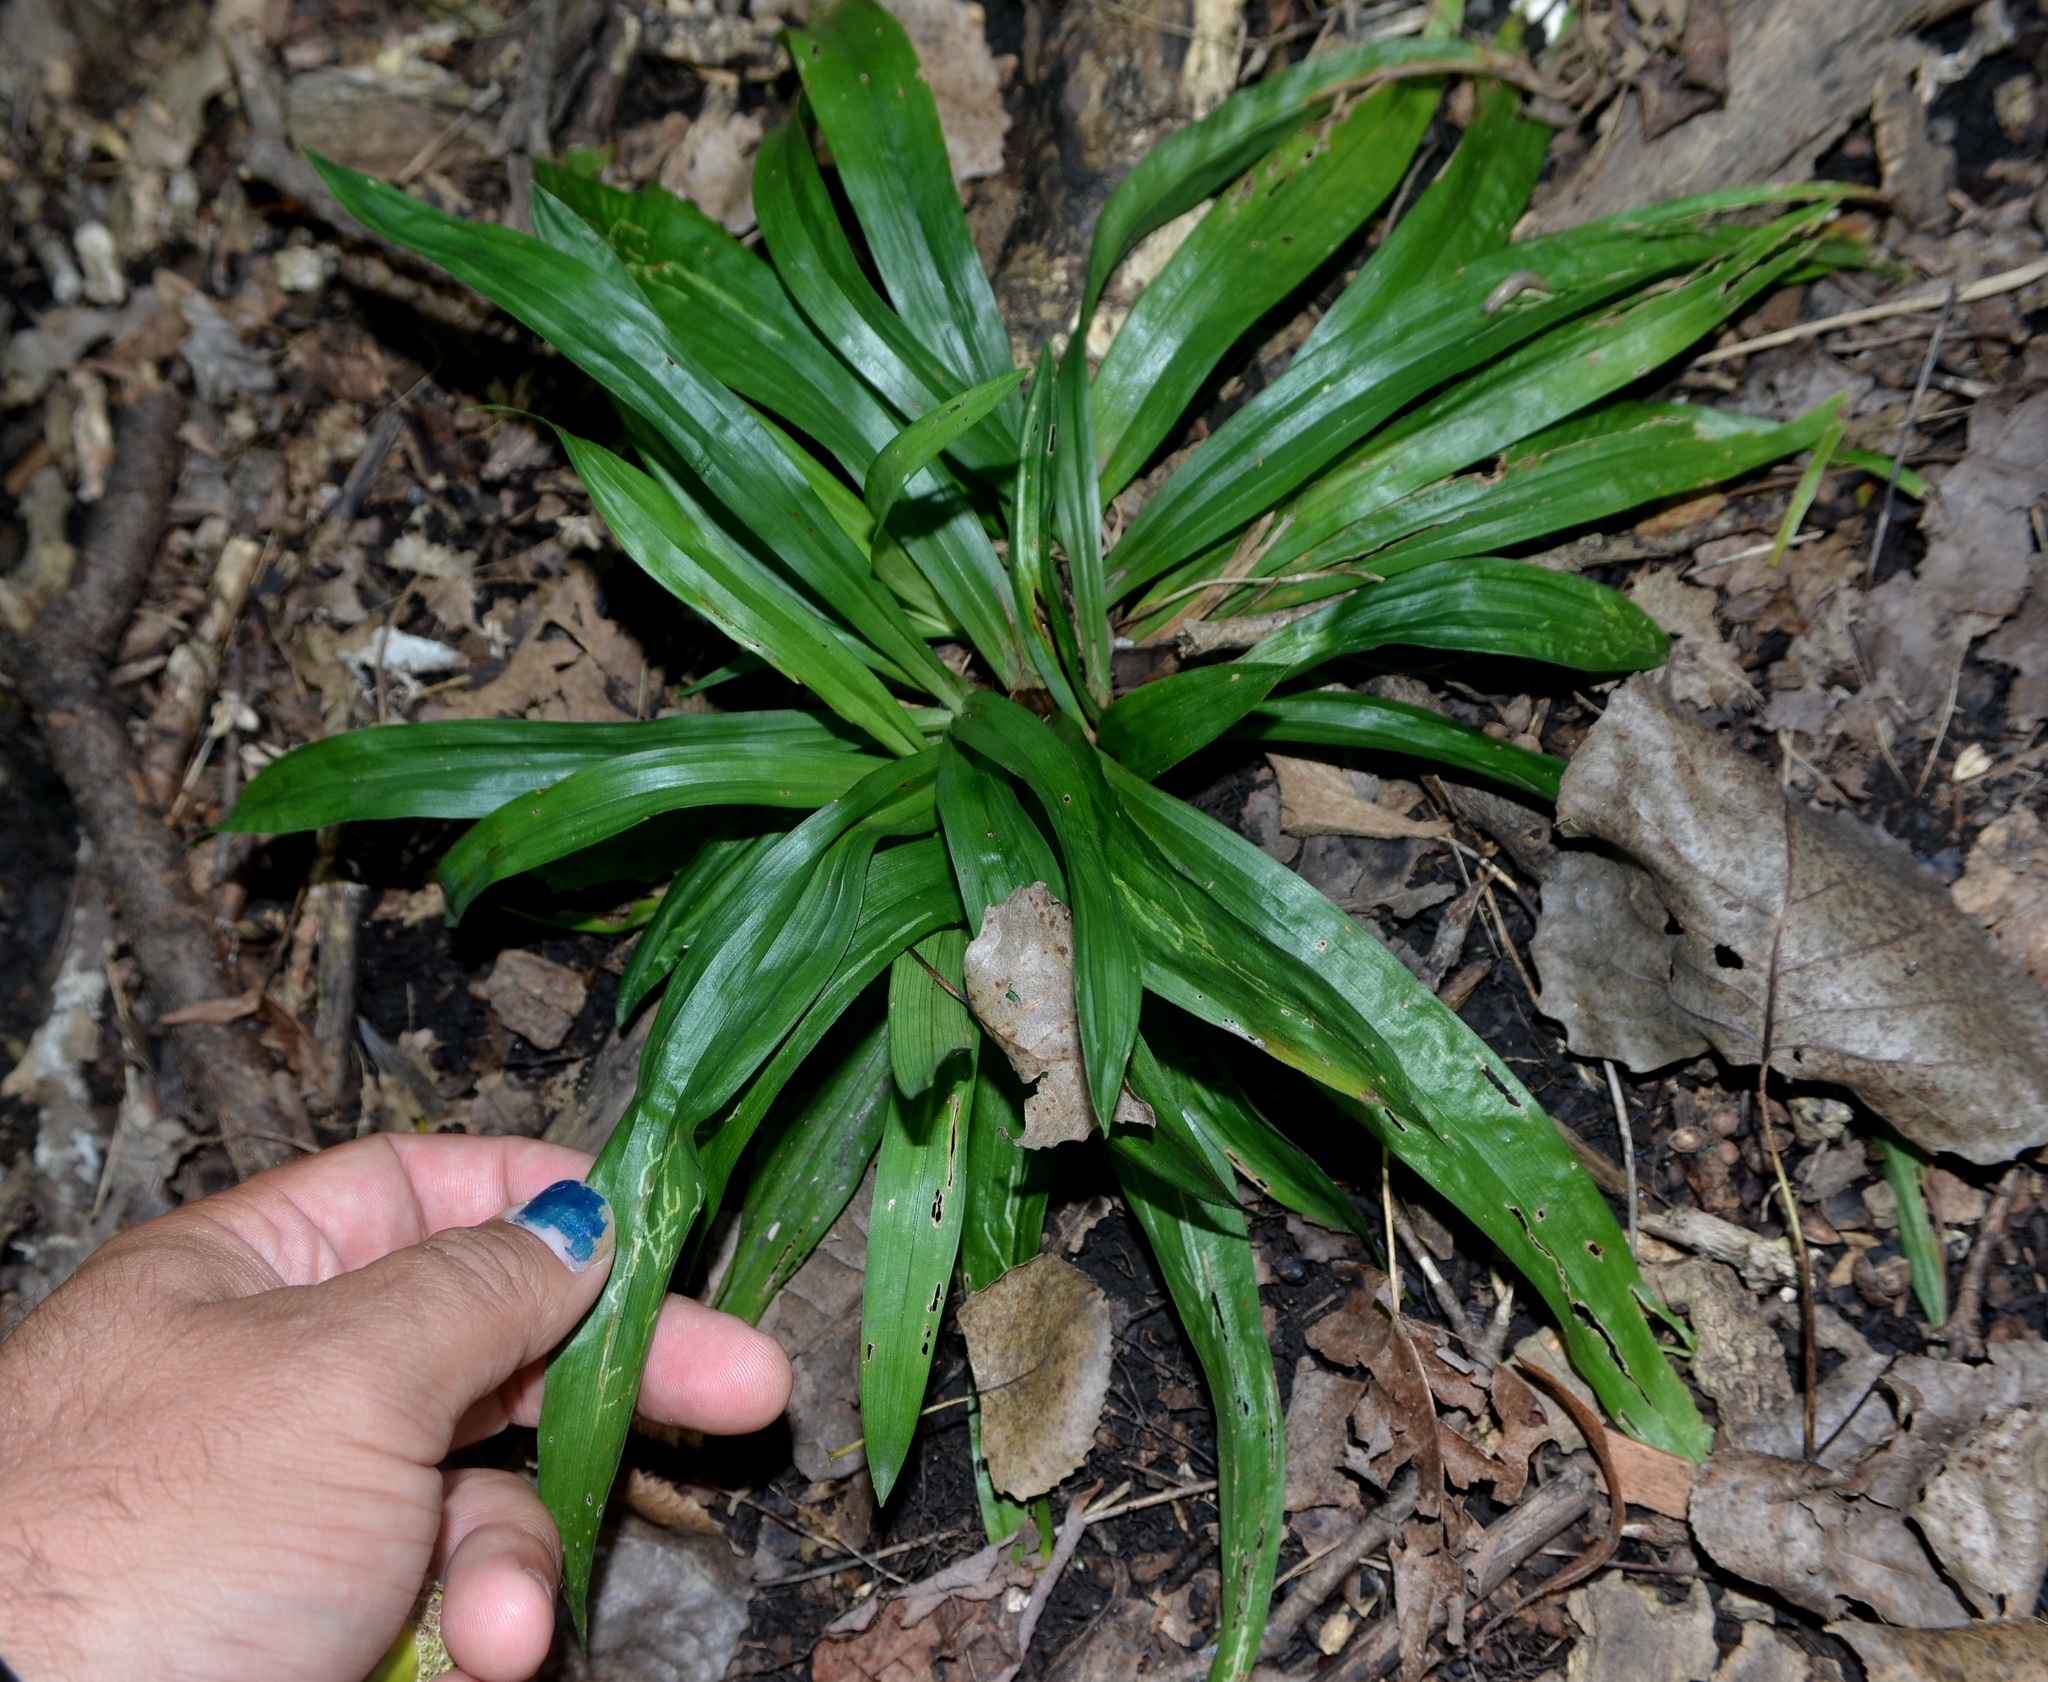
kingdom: Plantae
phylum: Tracheophyta
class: Liliopsida
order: Poales
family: Cyperaceae
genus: Carex
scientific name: Carex albursina
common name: Blunt-scale wood sedge
